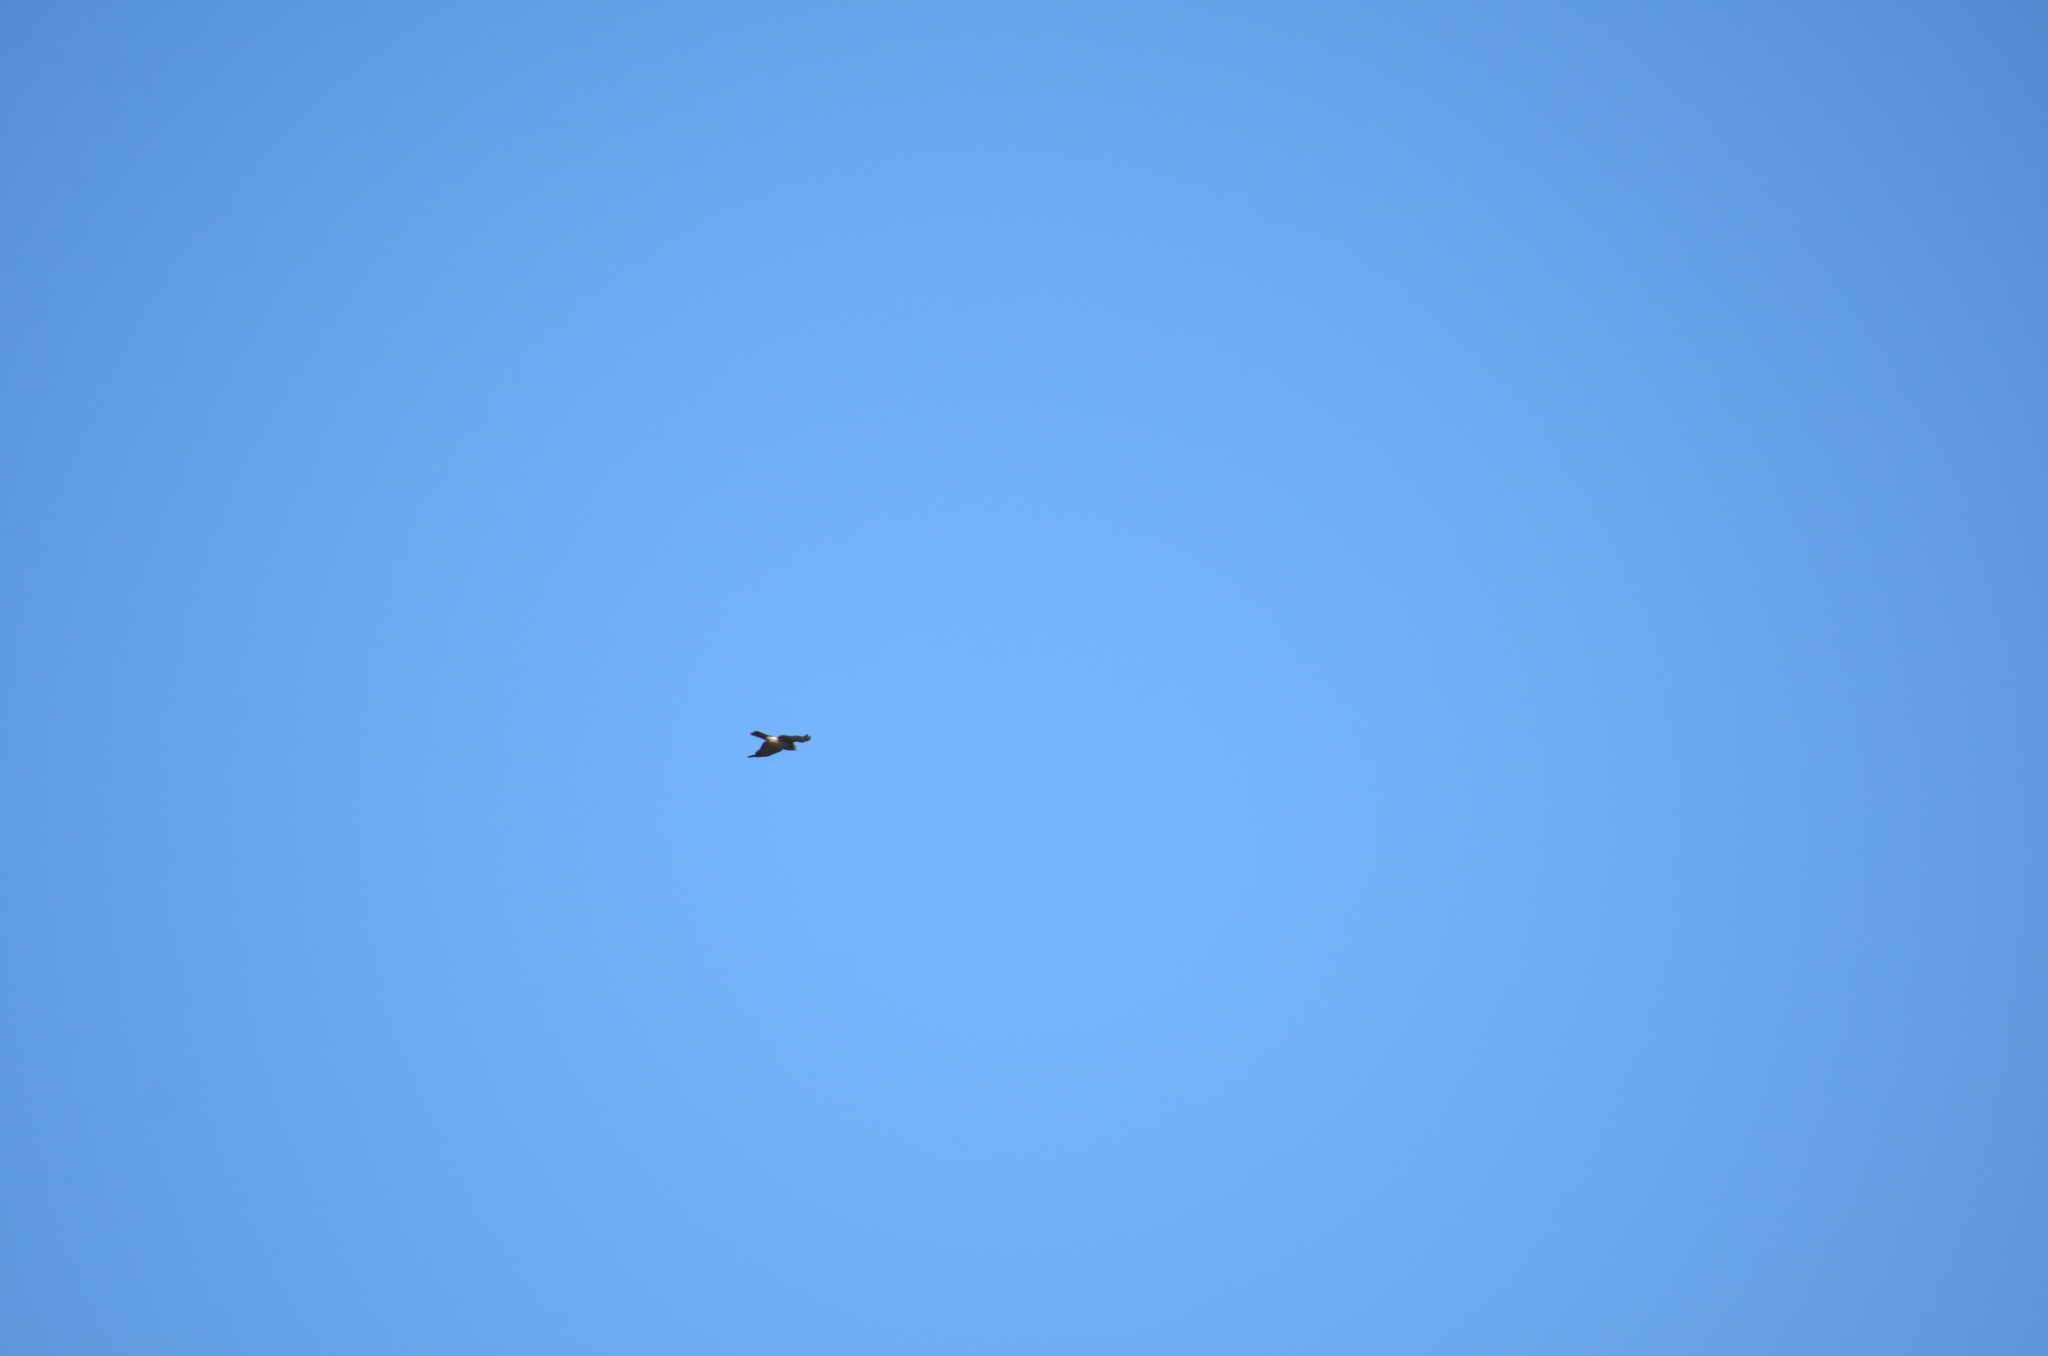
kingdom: Animalia
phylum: Chordata
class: Aves
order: Accipitriformes
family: Accipitridae
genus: Accipiter
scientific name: Accipiter cooperii
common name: Cooper's hawk
